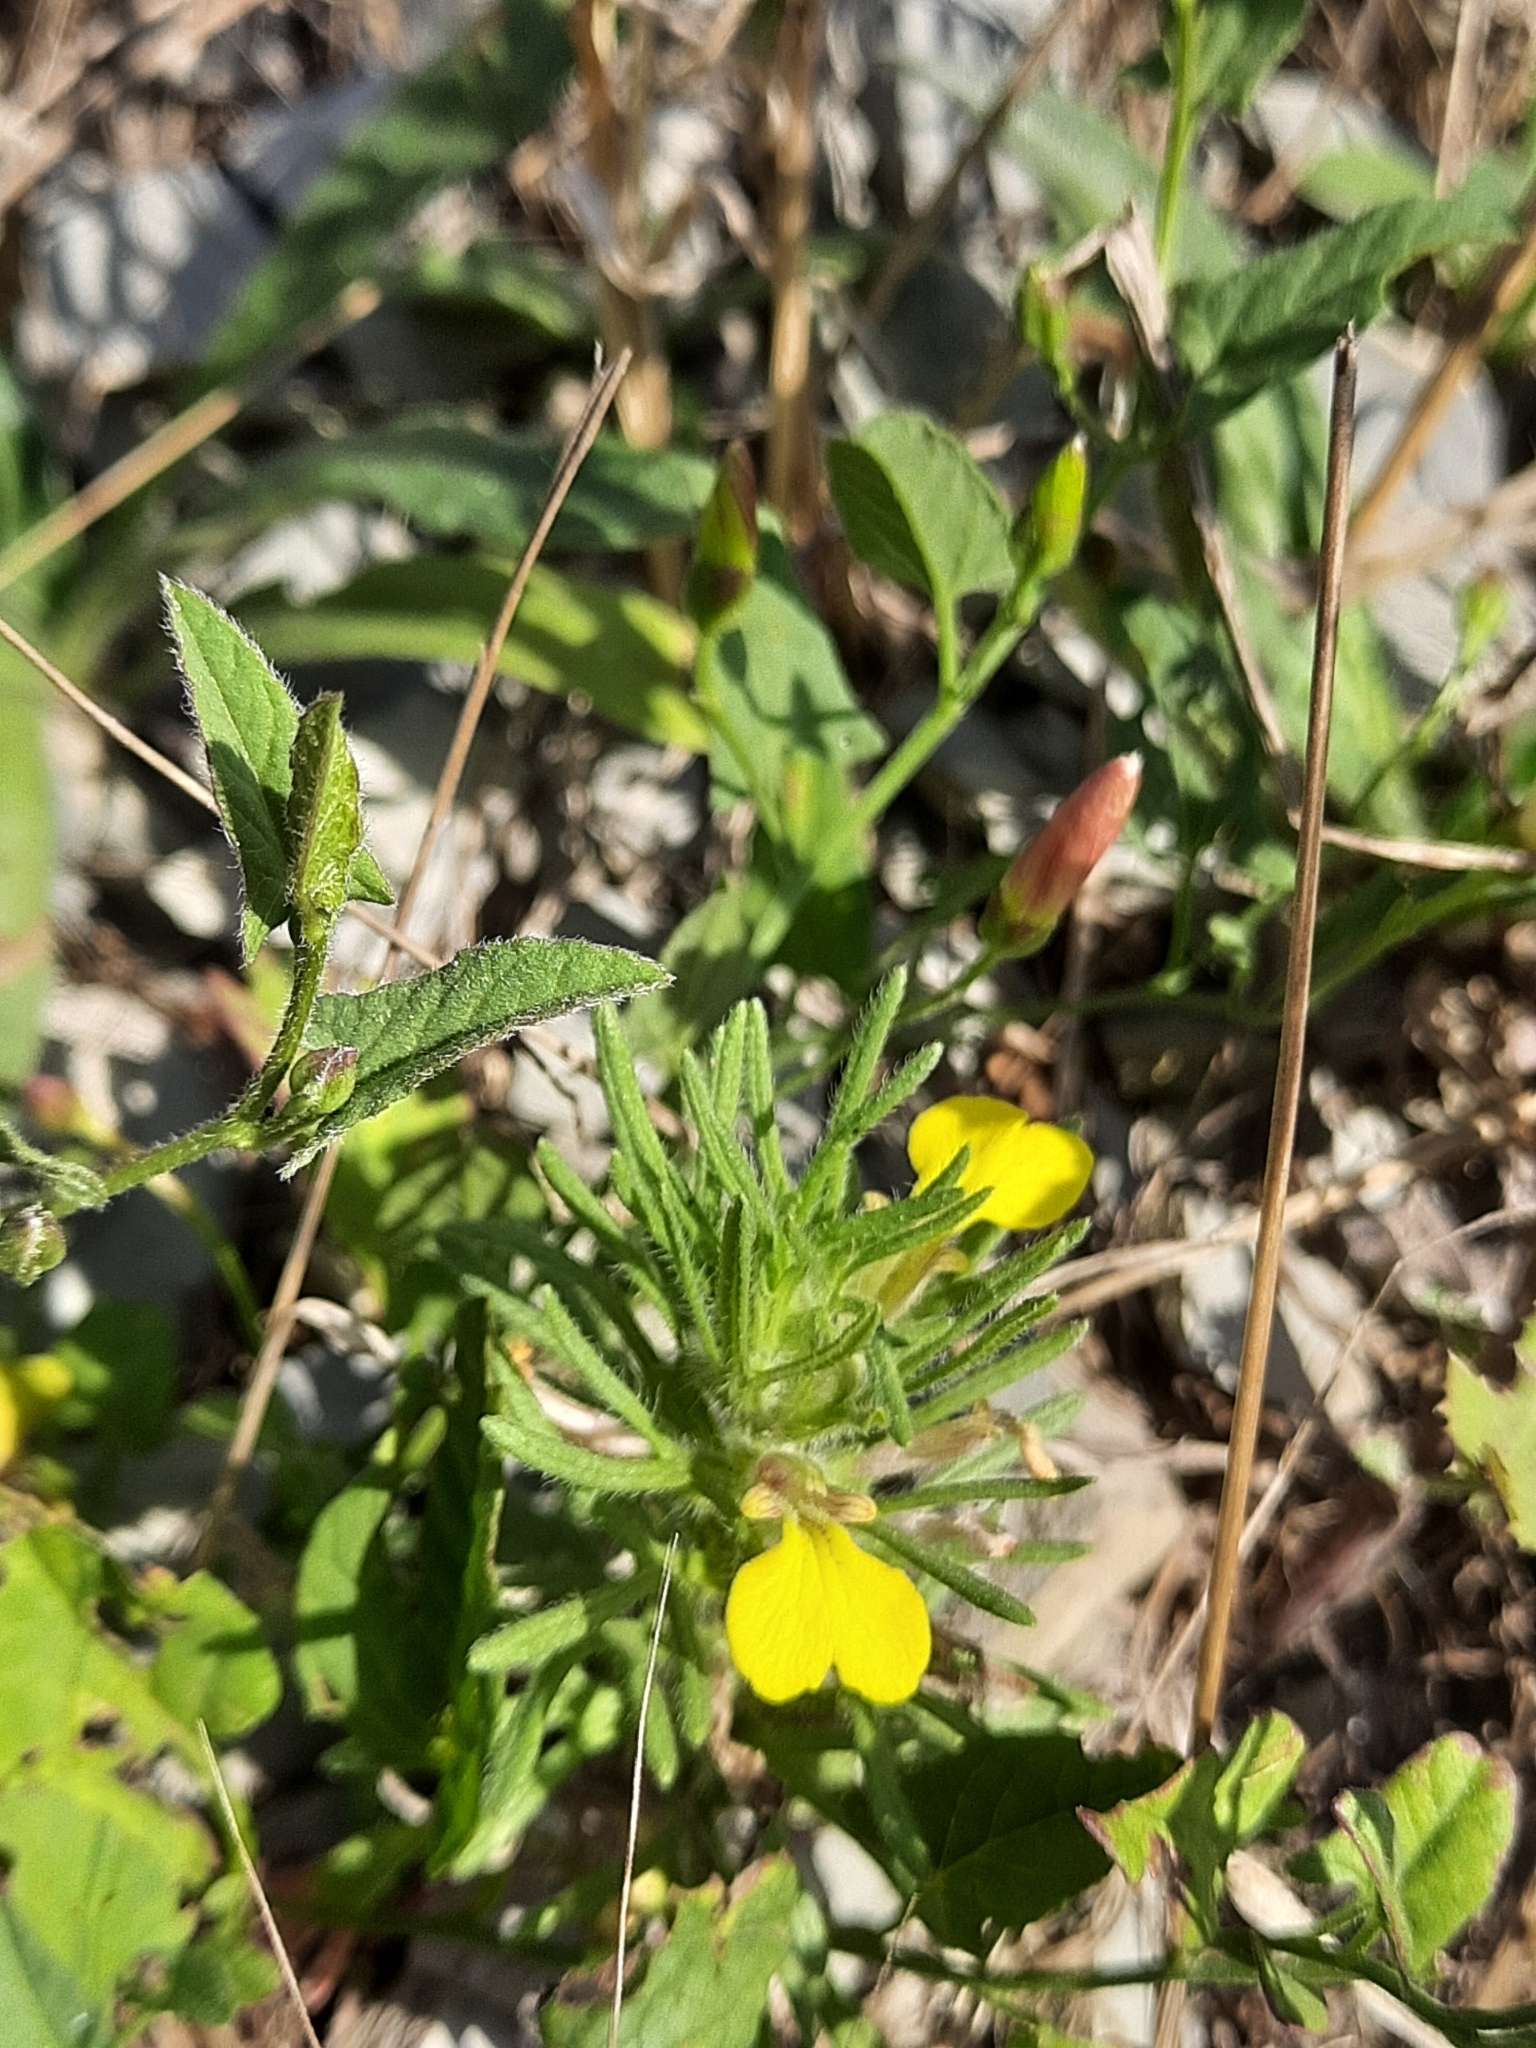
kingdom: Plantae
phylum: Tracheophyta
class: Magnoliopsida
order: Lamiales
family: Lamiaceae
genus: Ajuga
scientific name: Ajuga chamaepitys
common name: Ground-pine
